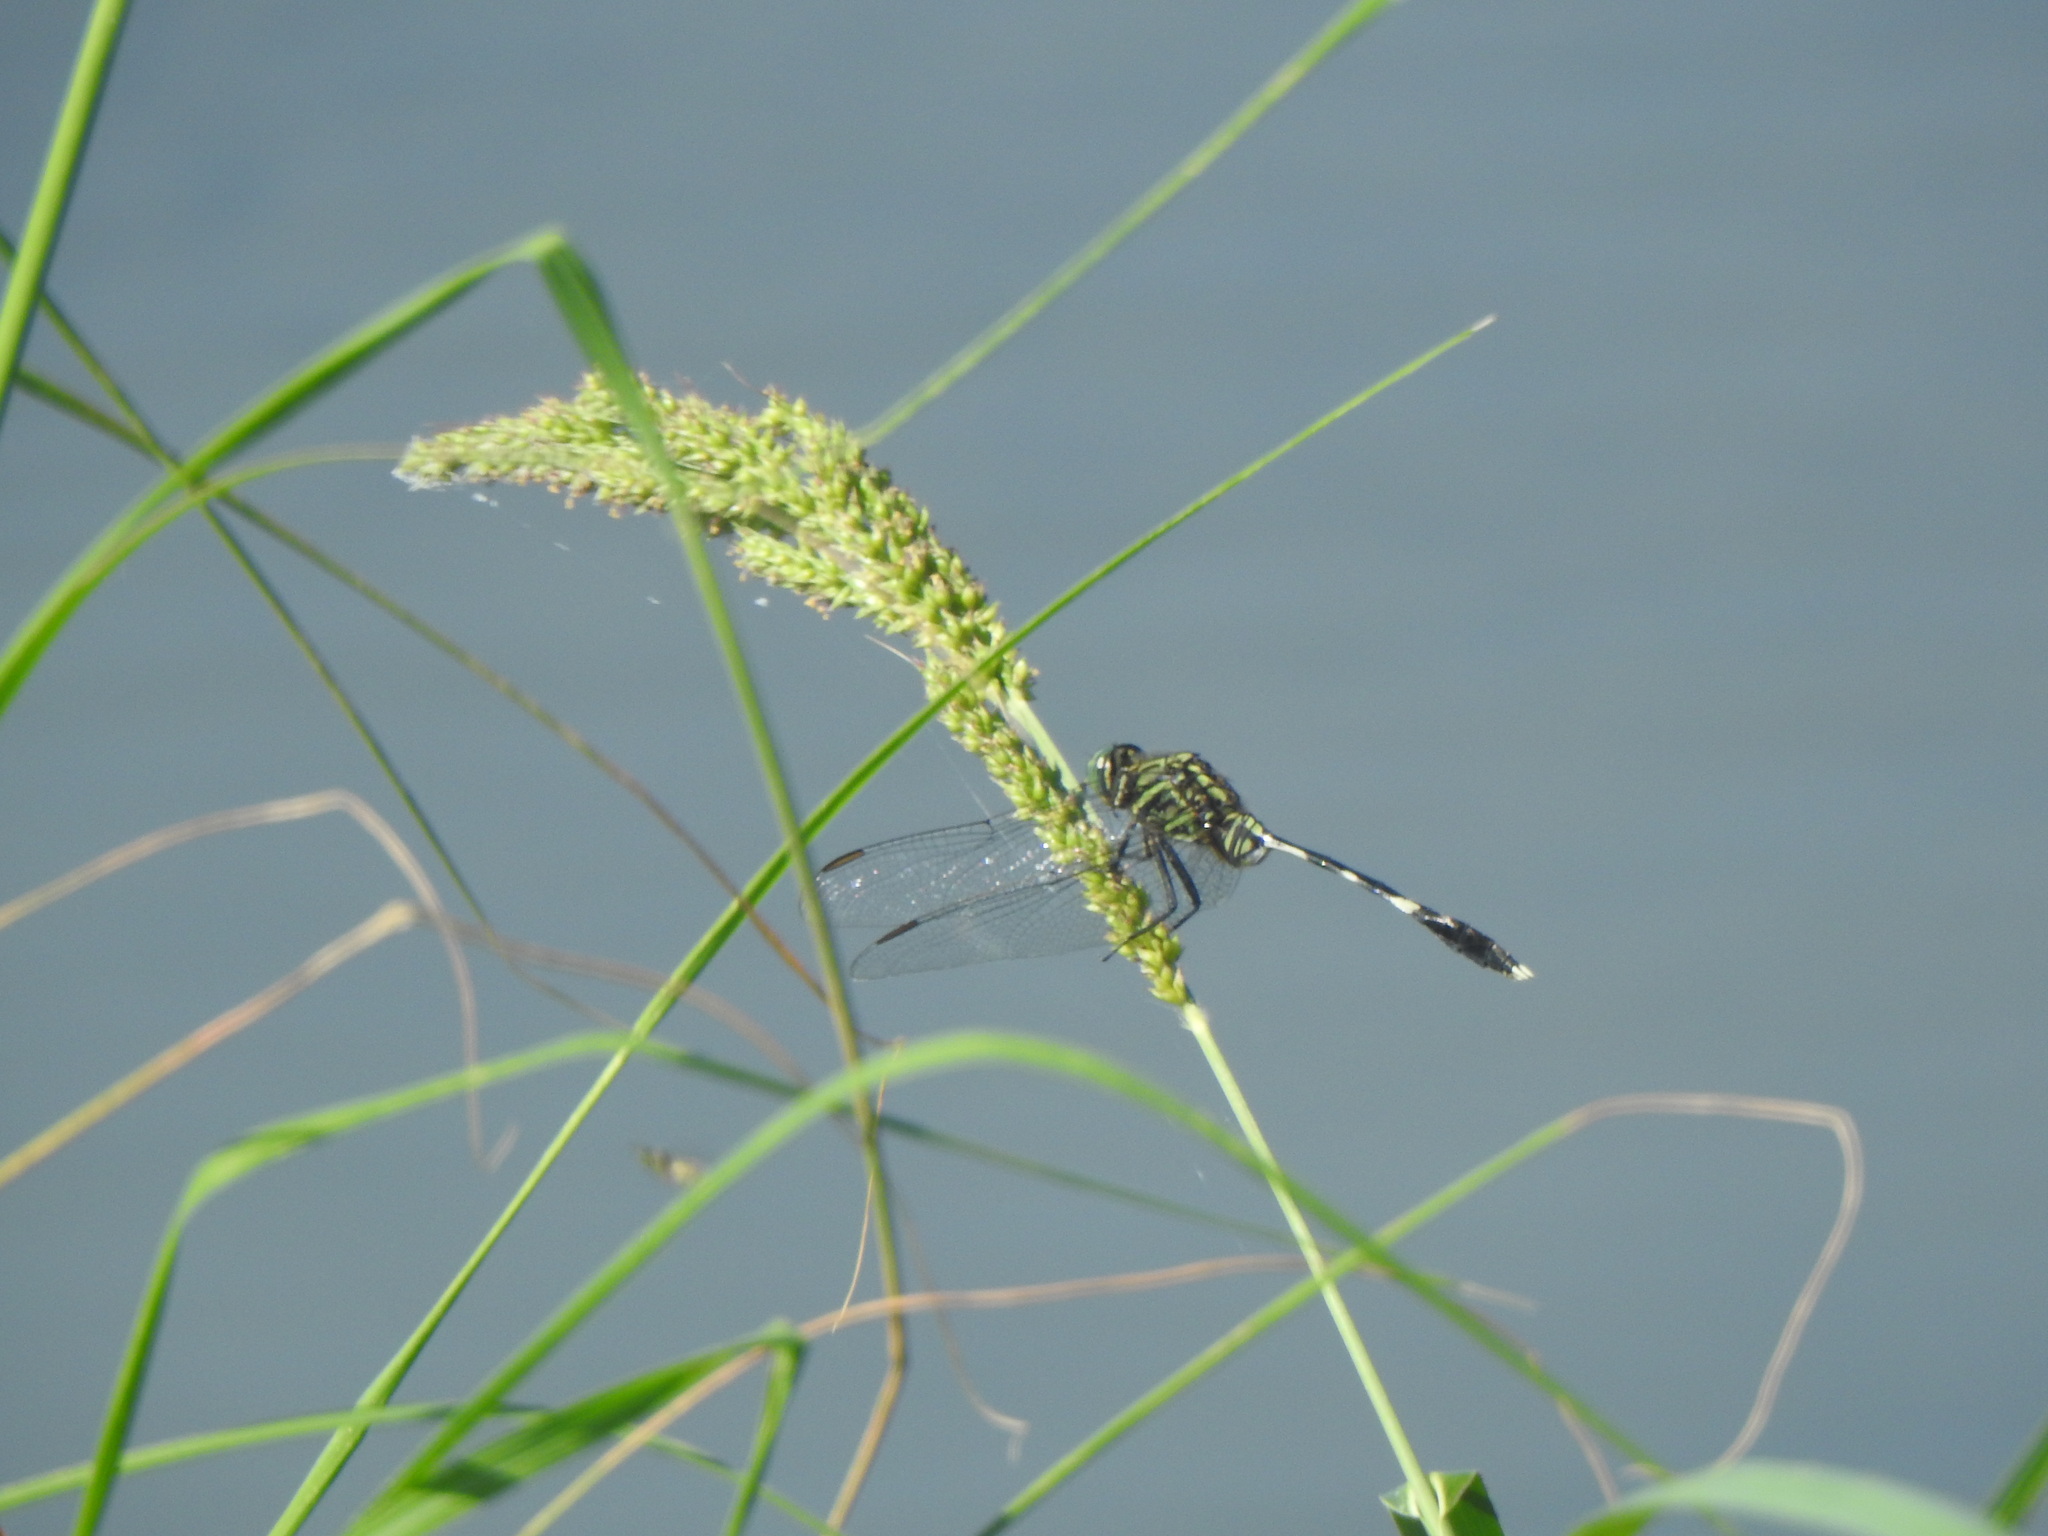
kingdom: Animalia
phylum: Arthropoda
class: Insecta
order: Odonata
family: Libellulidae
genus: Orthetrum
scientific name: Orthetrum sabina
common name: Slender skimmer
